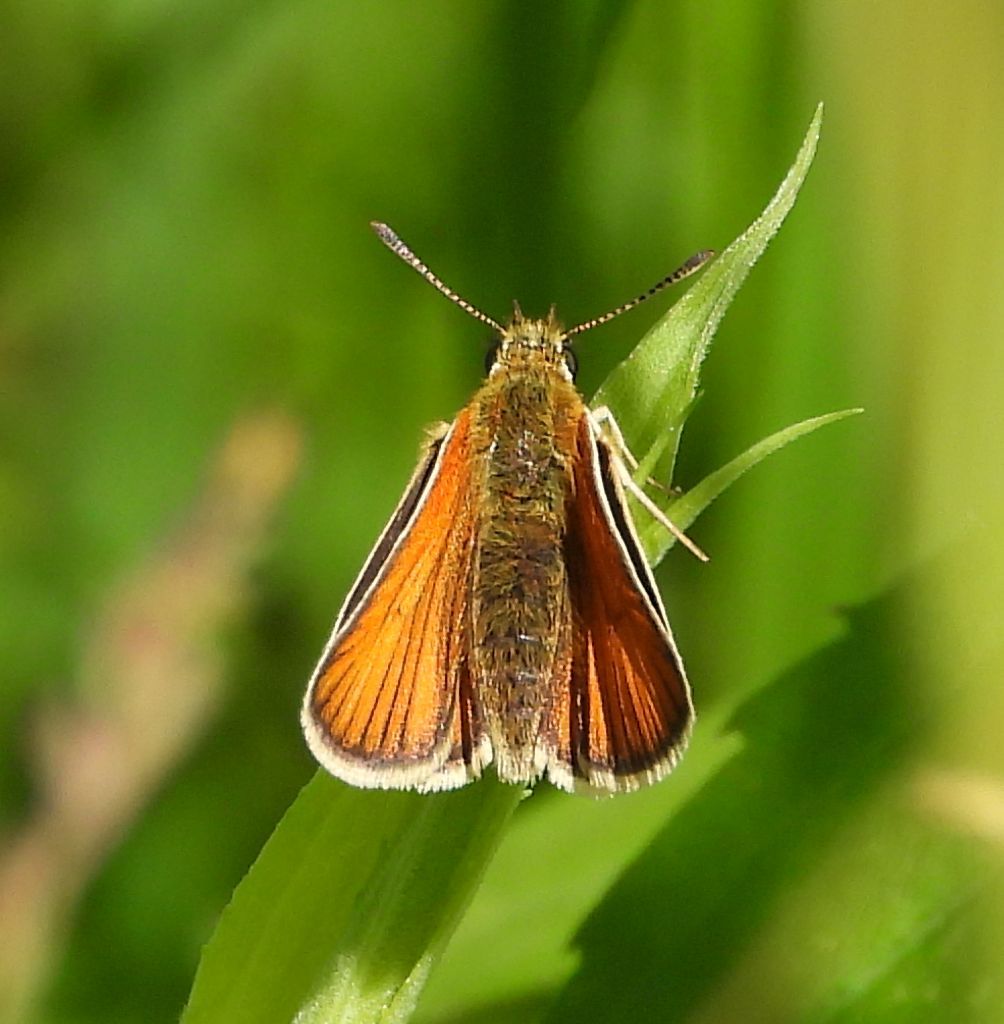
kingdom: Animalia
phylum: Arthropoda
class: Insecta
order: Lepidoptera
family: Hesperiidae
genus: Thymelicus
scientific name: Thymelicus lineola
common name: Essex skipper
